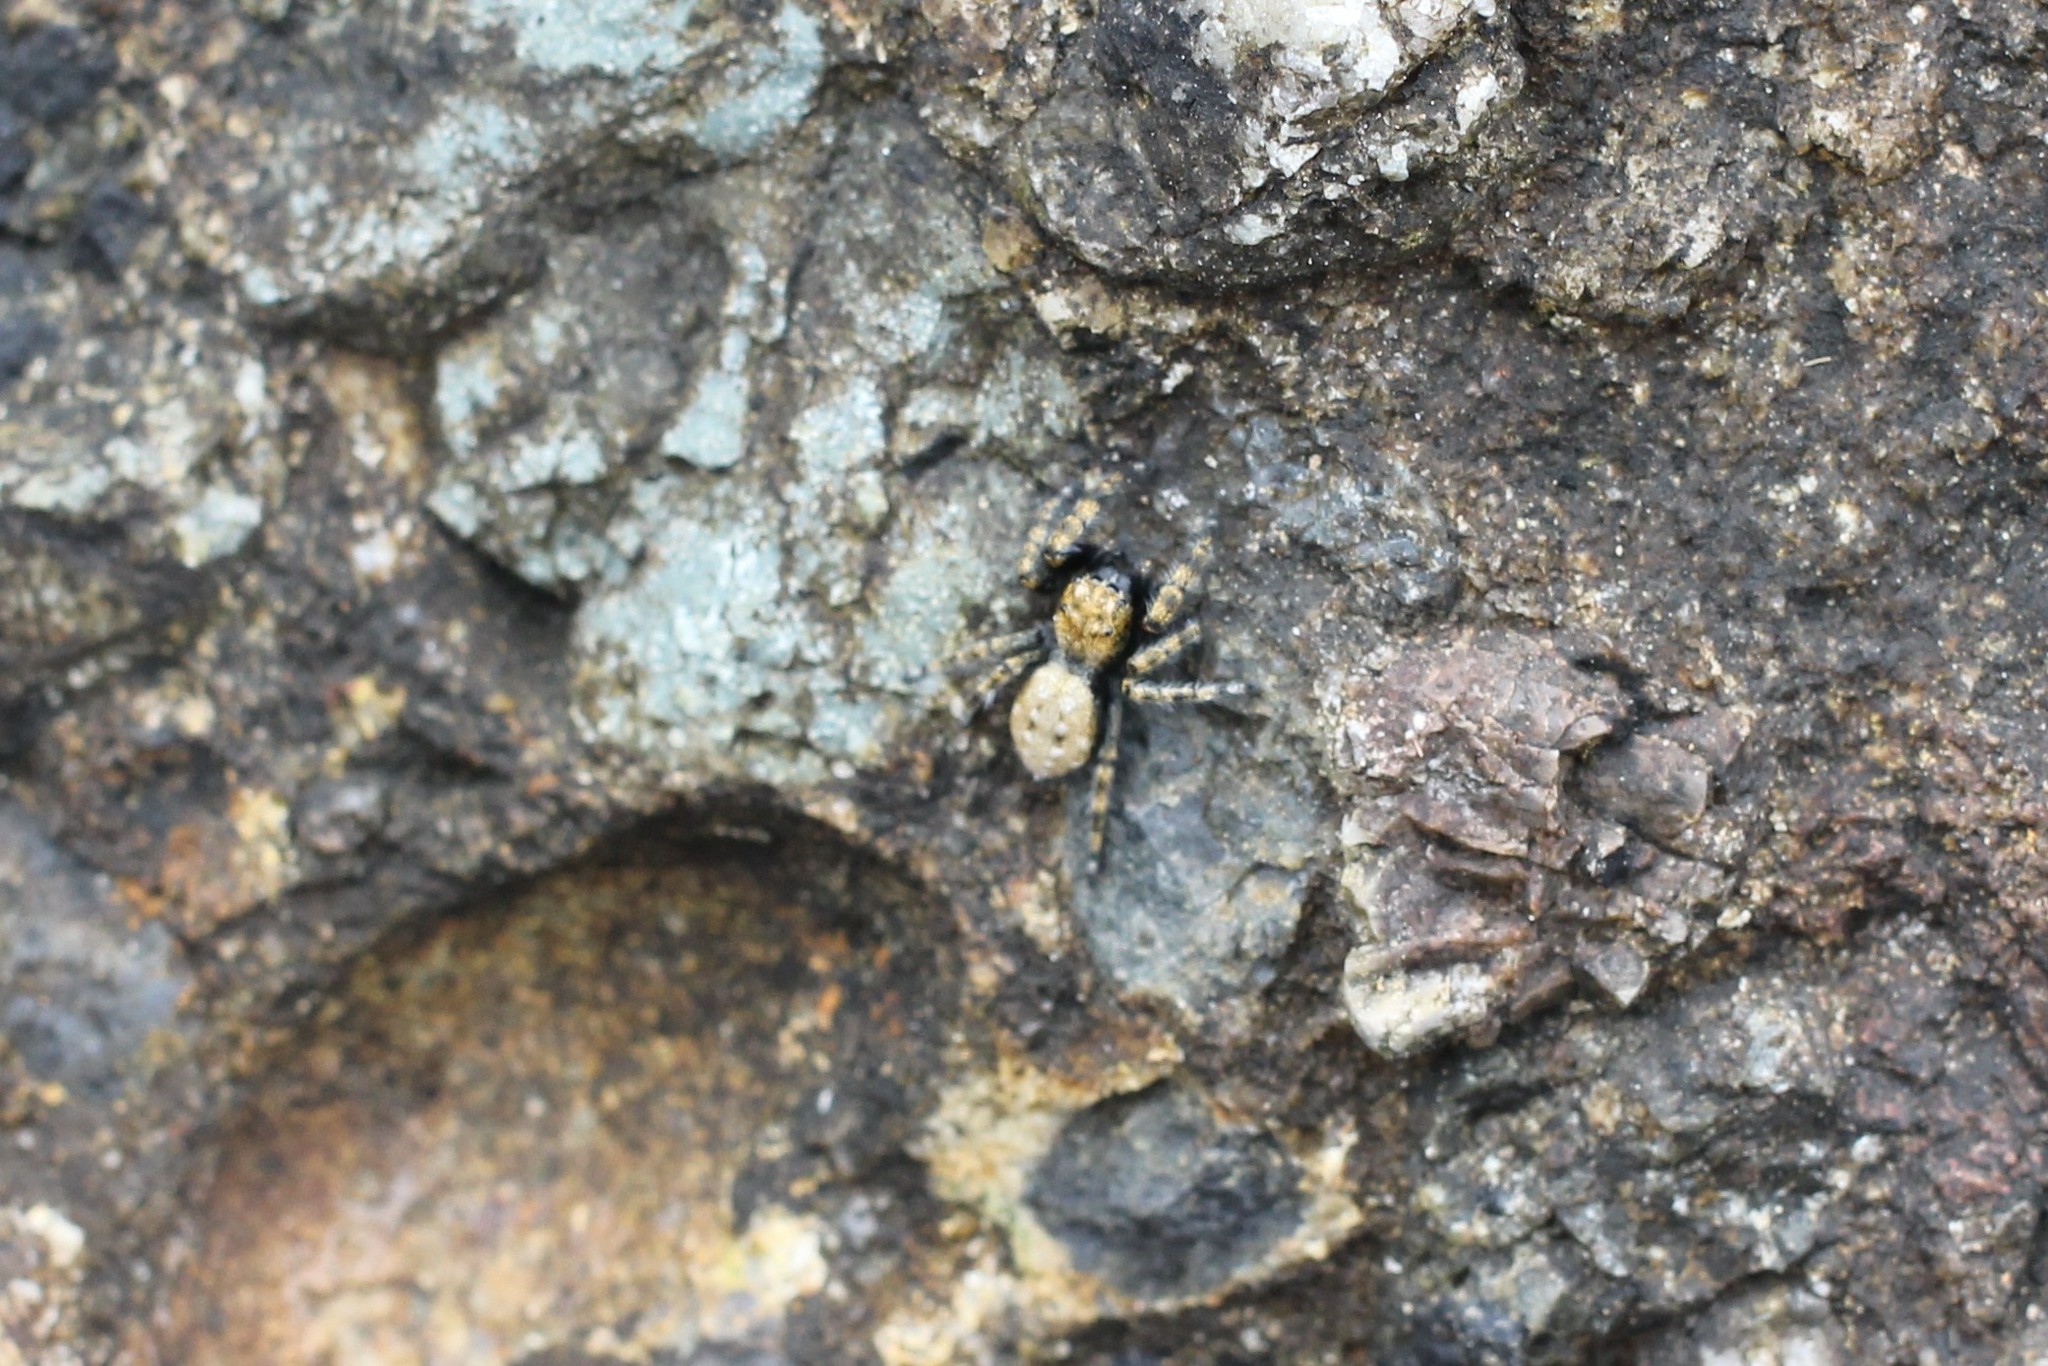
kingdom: Animalia
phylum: Arthropoda
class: Arachnida
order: Araneae
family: Salticidae
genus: Terralonus
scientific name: Terralonus californicus
